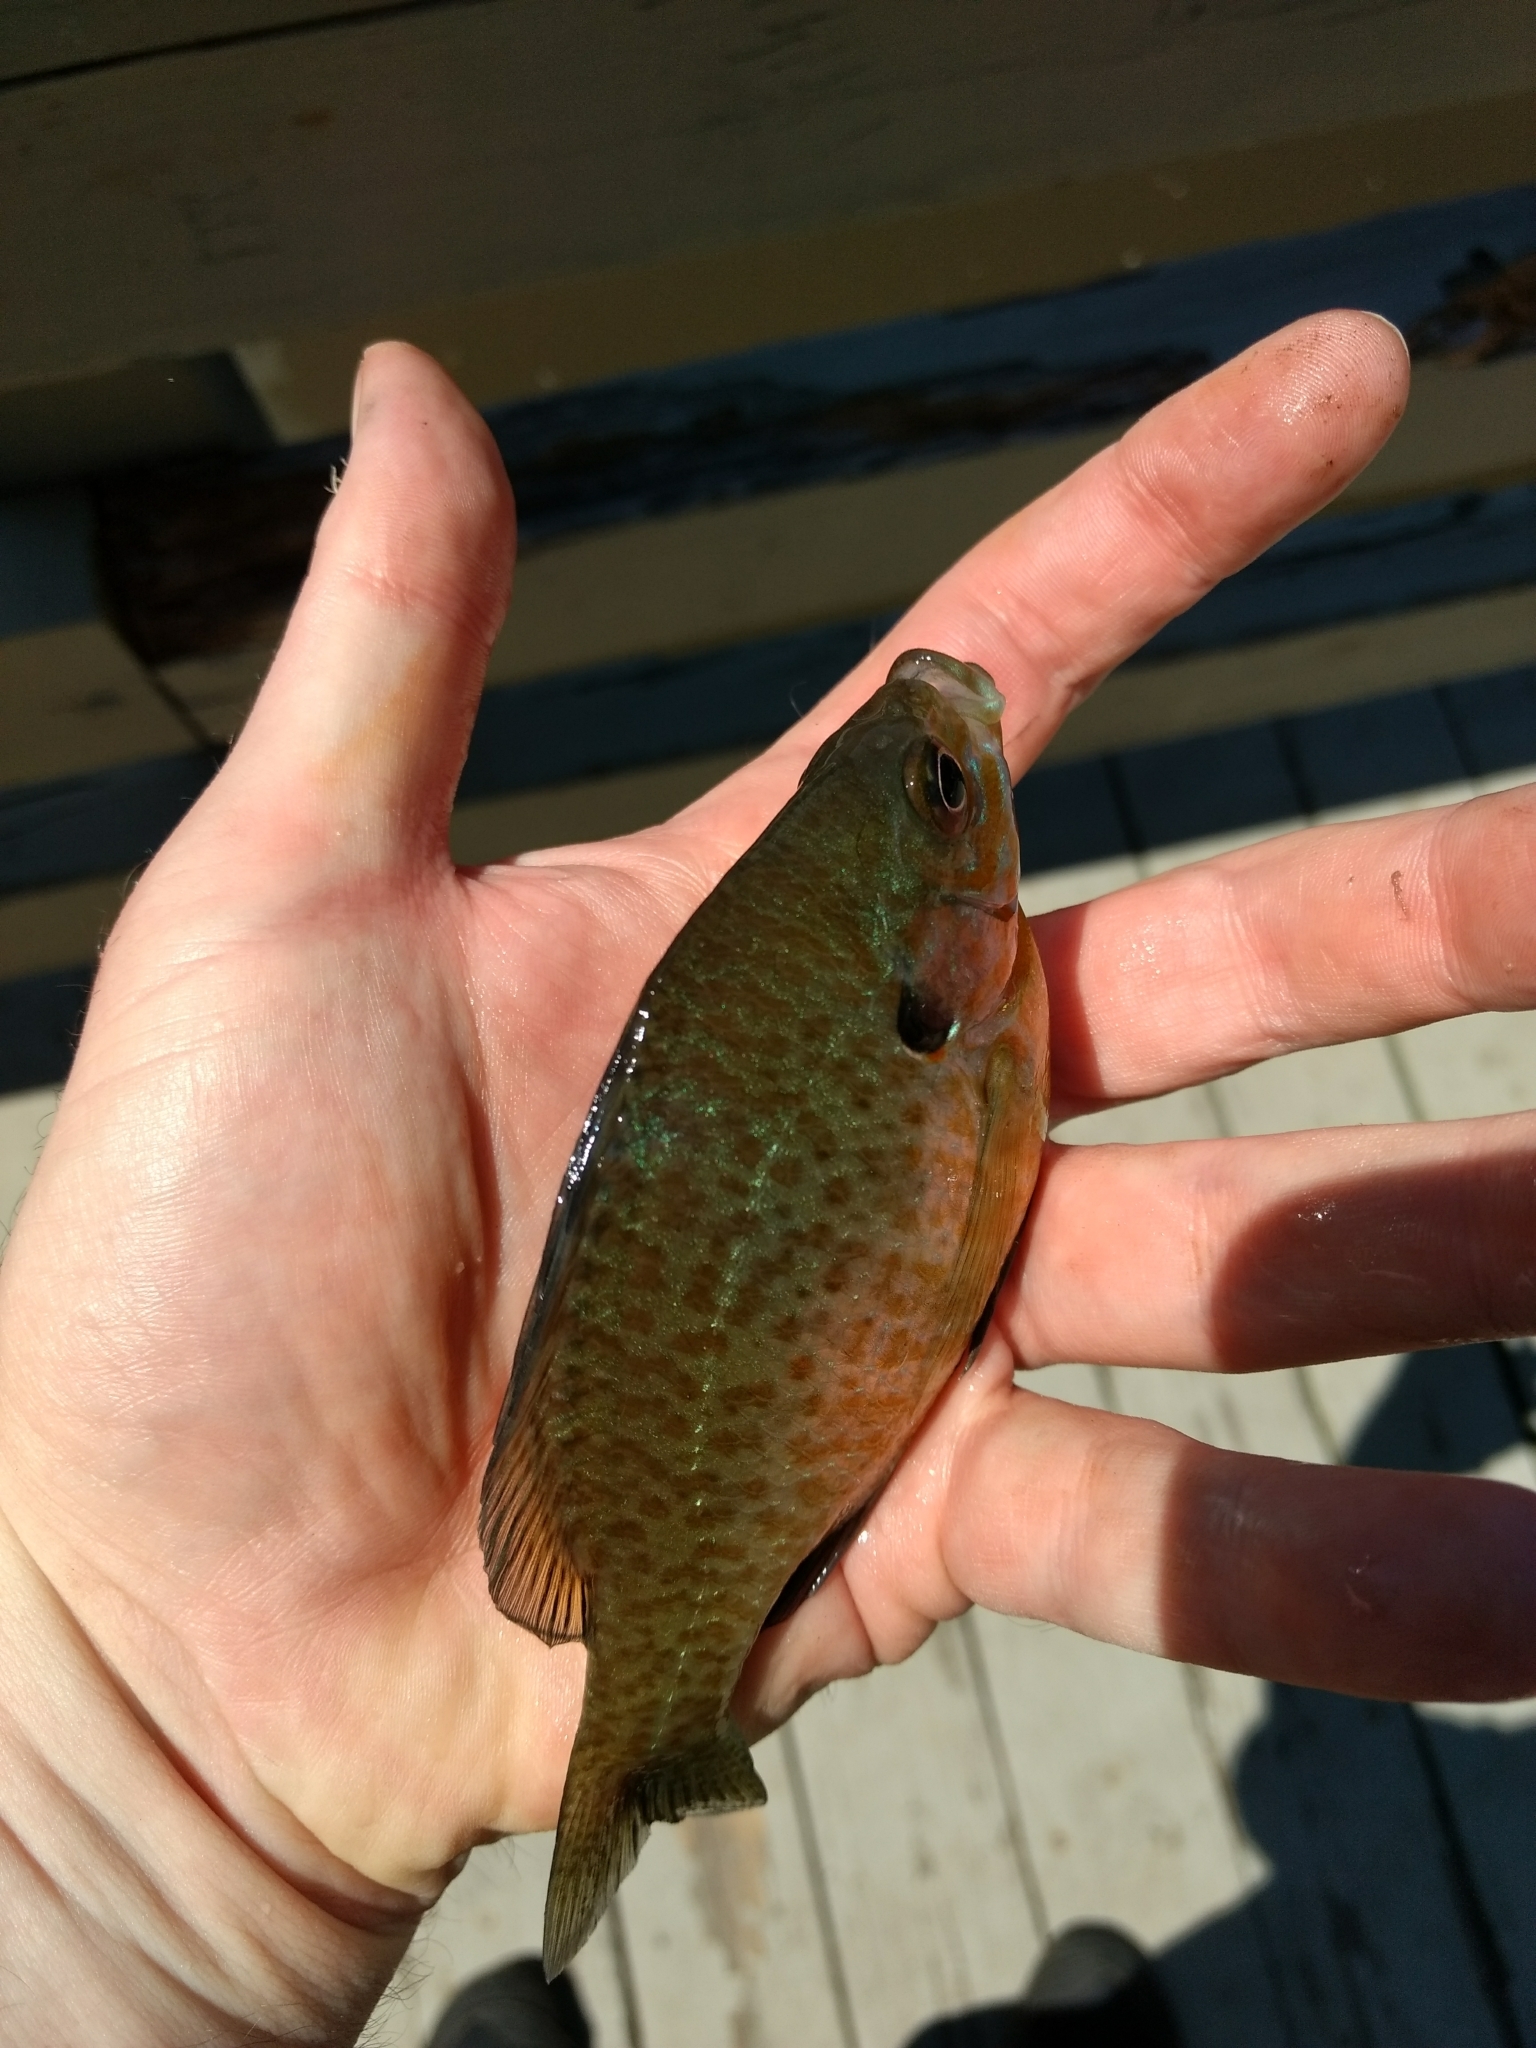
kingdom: Animalia
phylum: Chordata
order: Perciformes
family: Centrarchidae
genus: Lepomis
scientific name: Lepomis gibbosus
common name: Pumpkinseed
